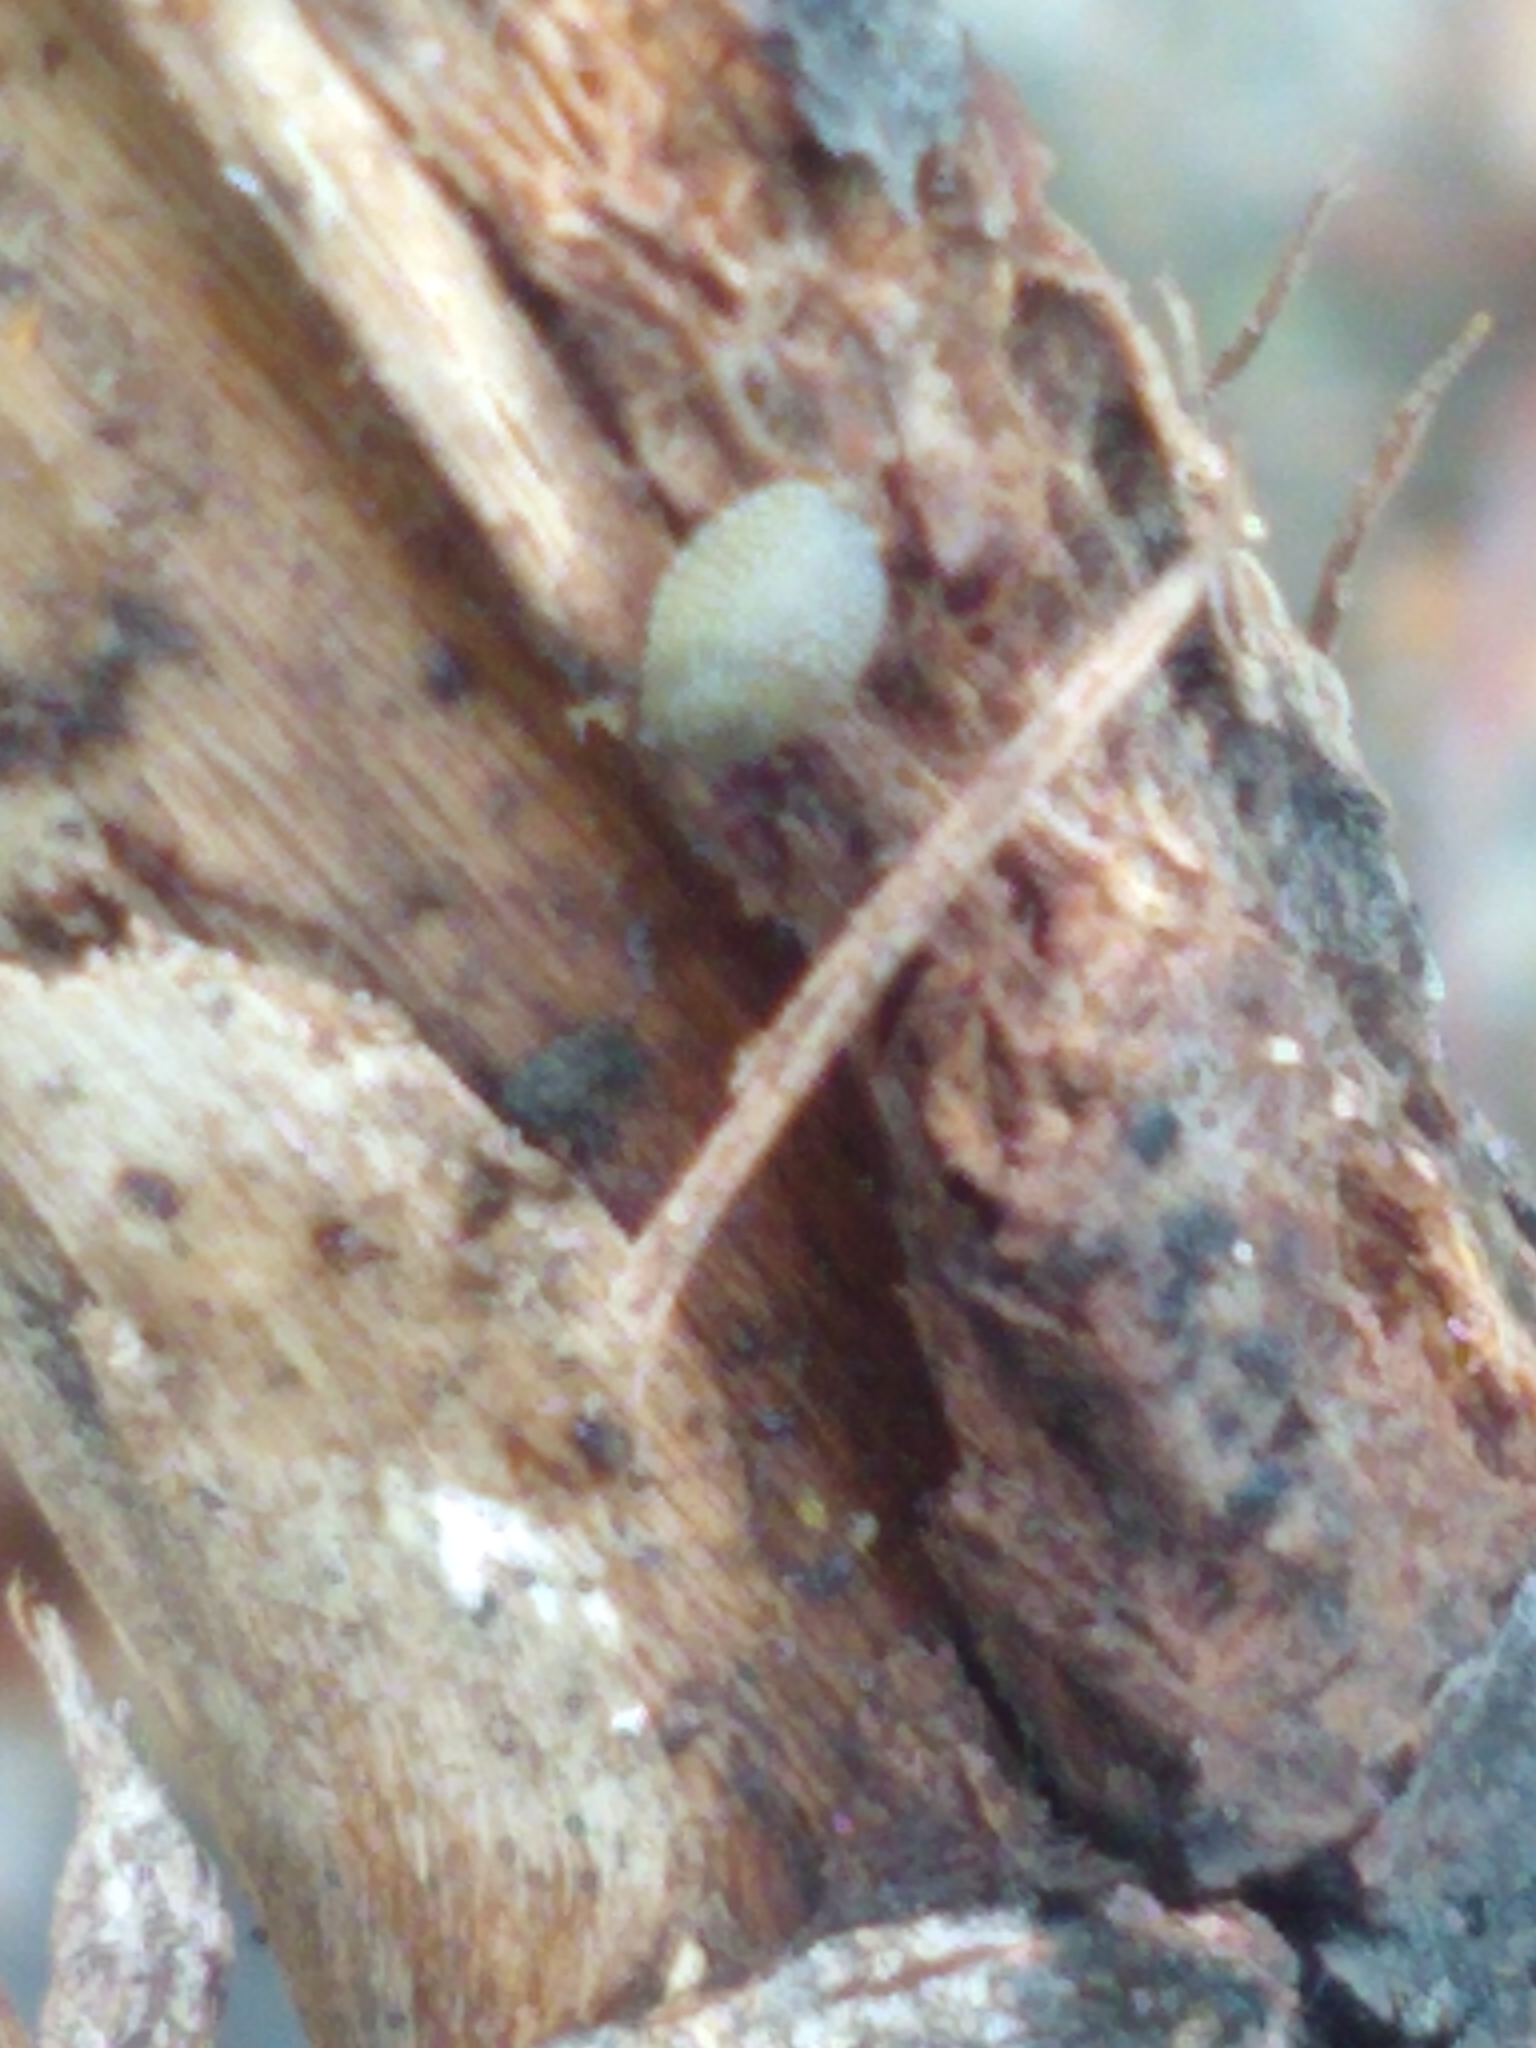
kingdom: Animalia
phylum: Mollusca
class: Gastropoda
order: Stylommatophora
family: Arionidae
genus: Arion
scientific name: Arion intermedius
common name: Hedgehog slug
